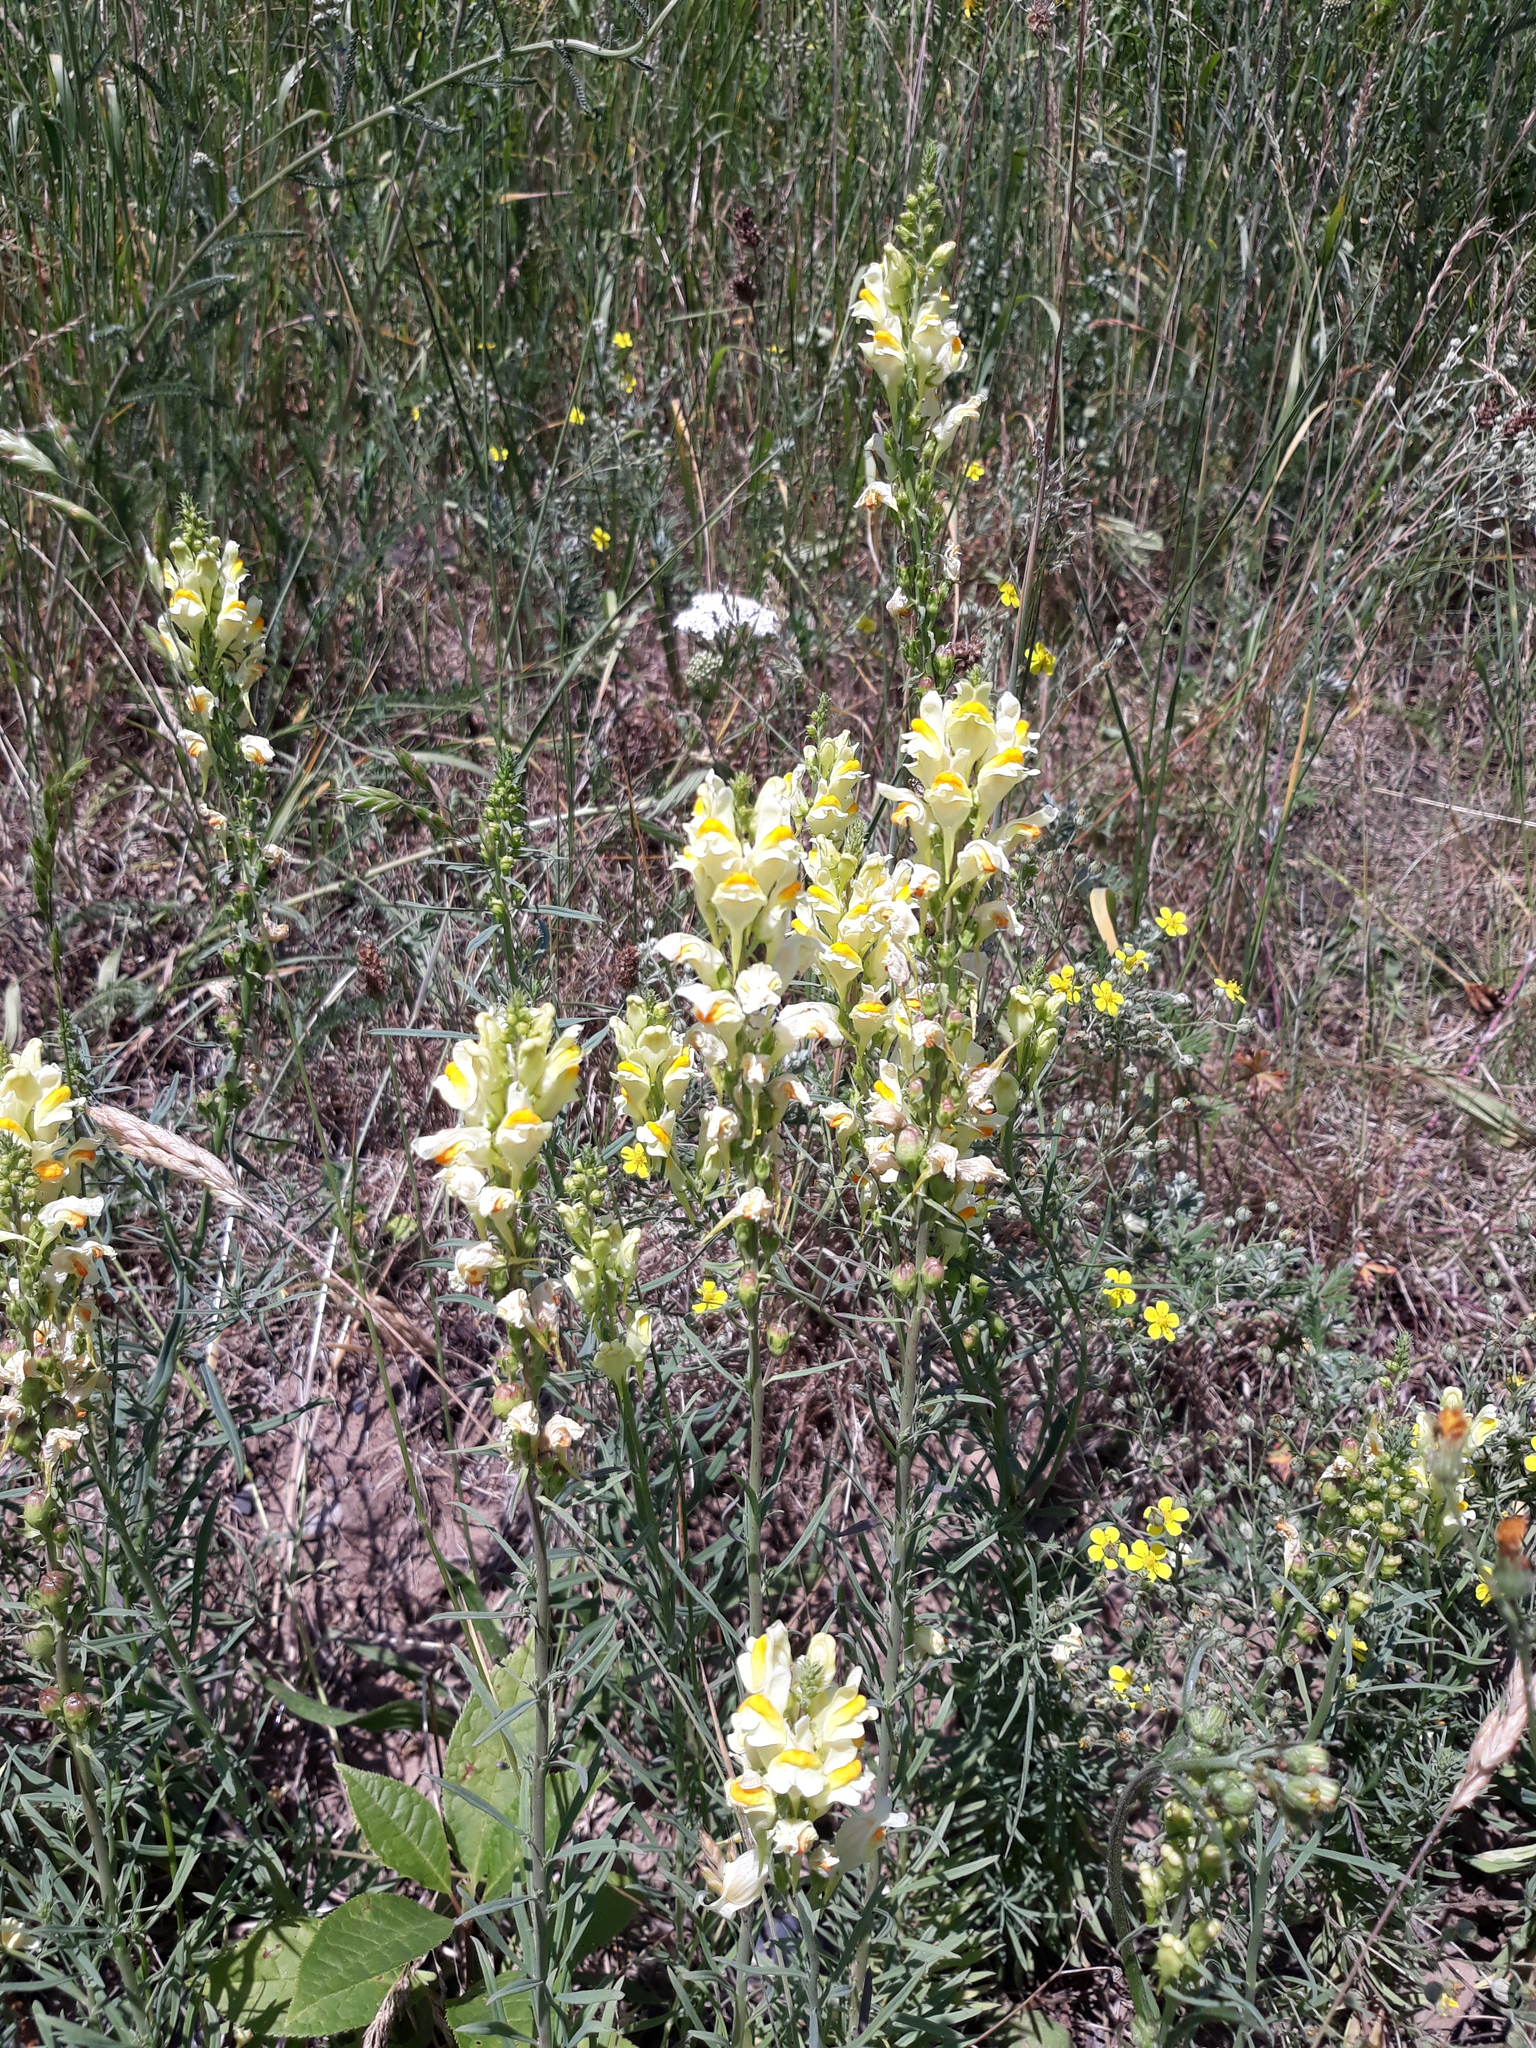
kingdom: Plantae
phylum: Tracheophyta
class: Magnoliopsida
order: Lamiales
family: Plantaginaceae
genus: Linaria
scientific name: Linaria vulgaris
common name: Butter and eggs
